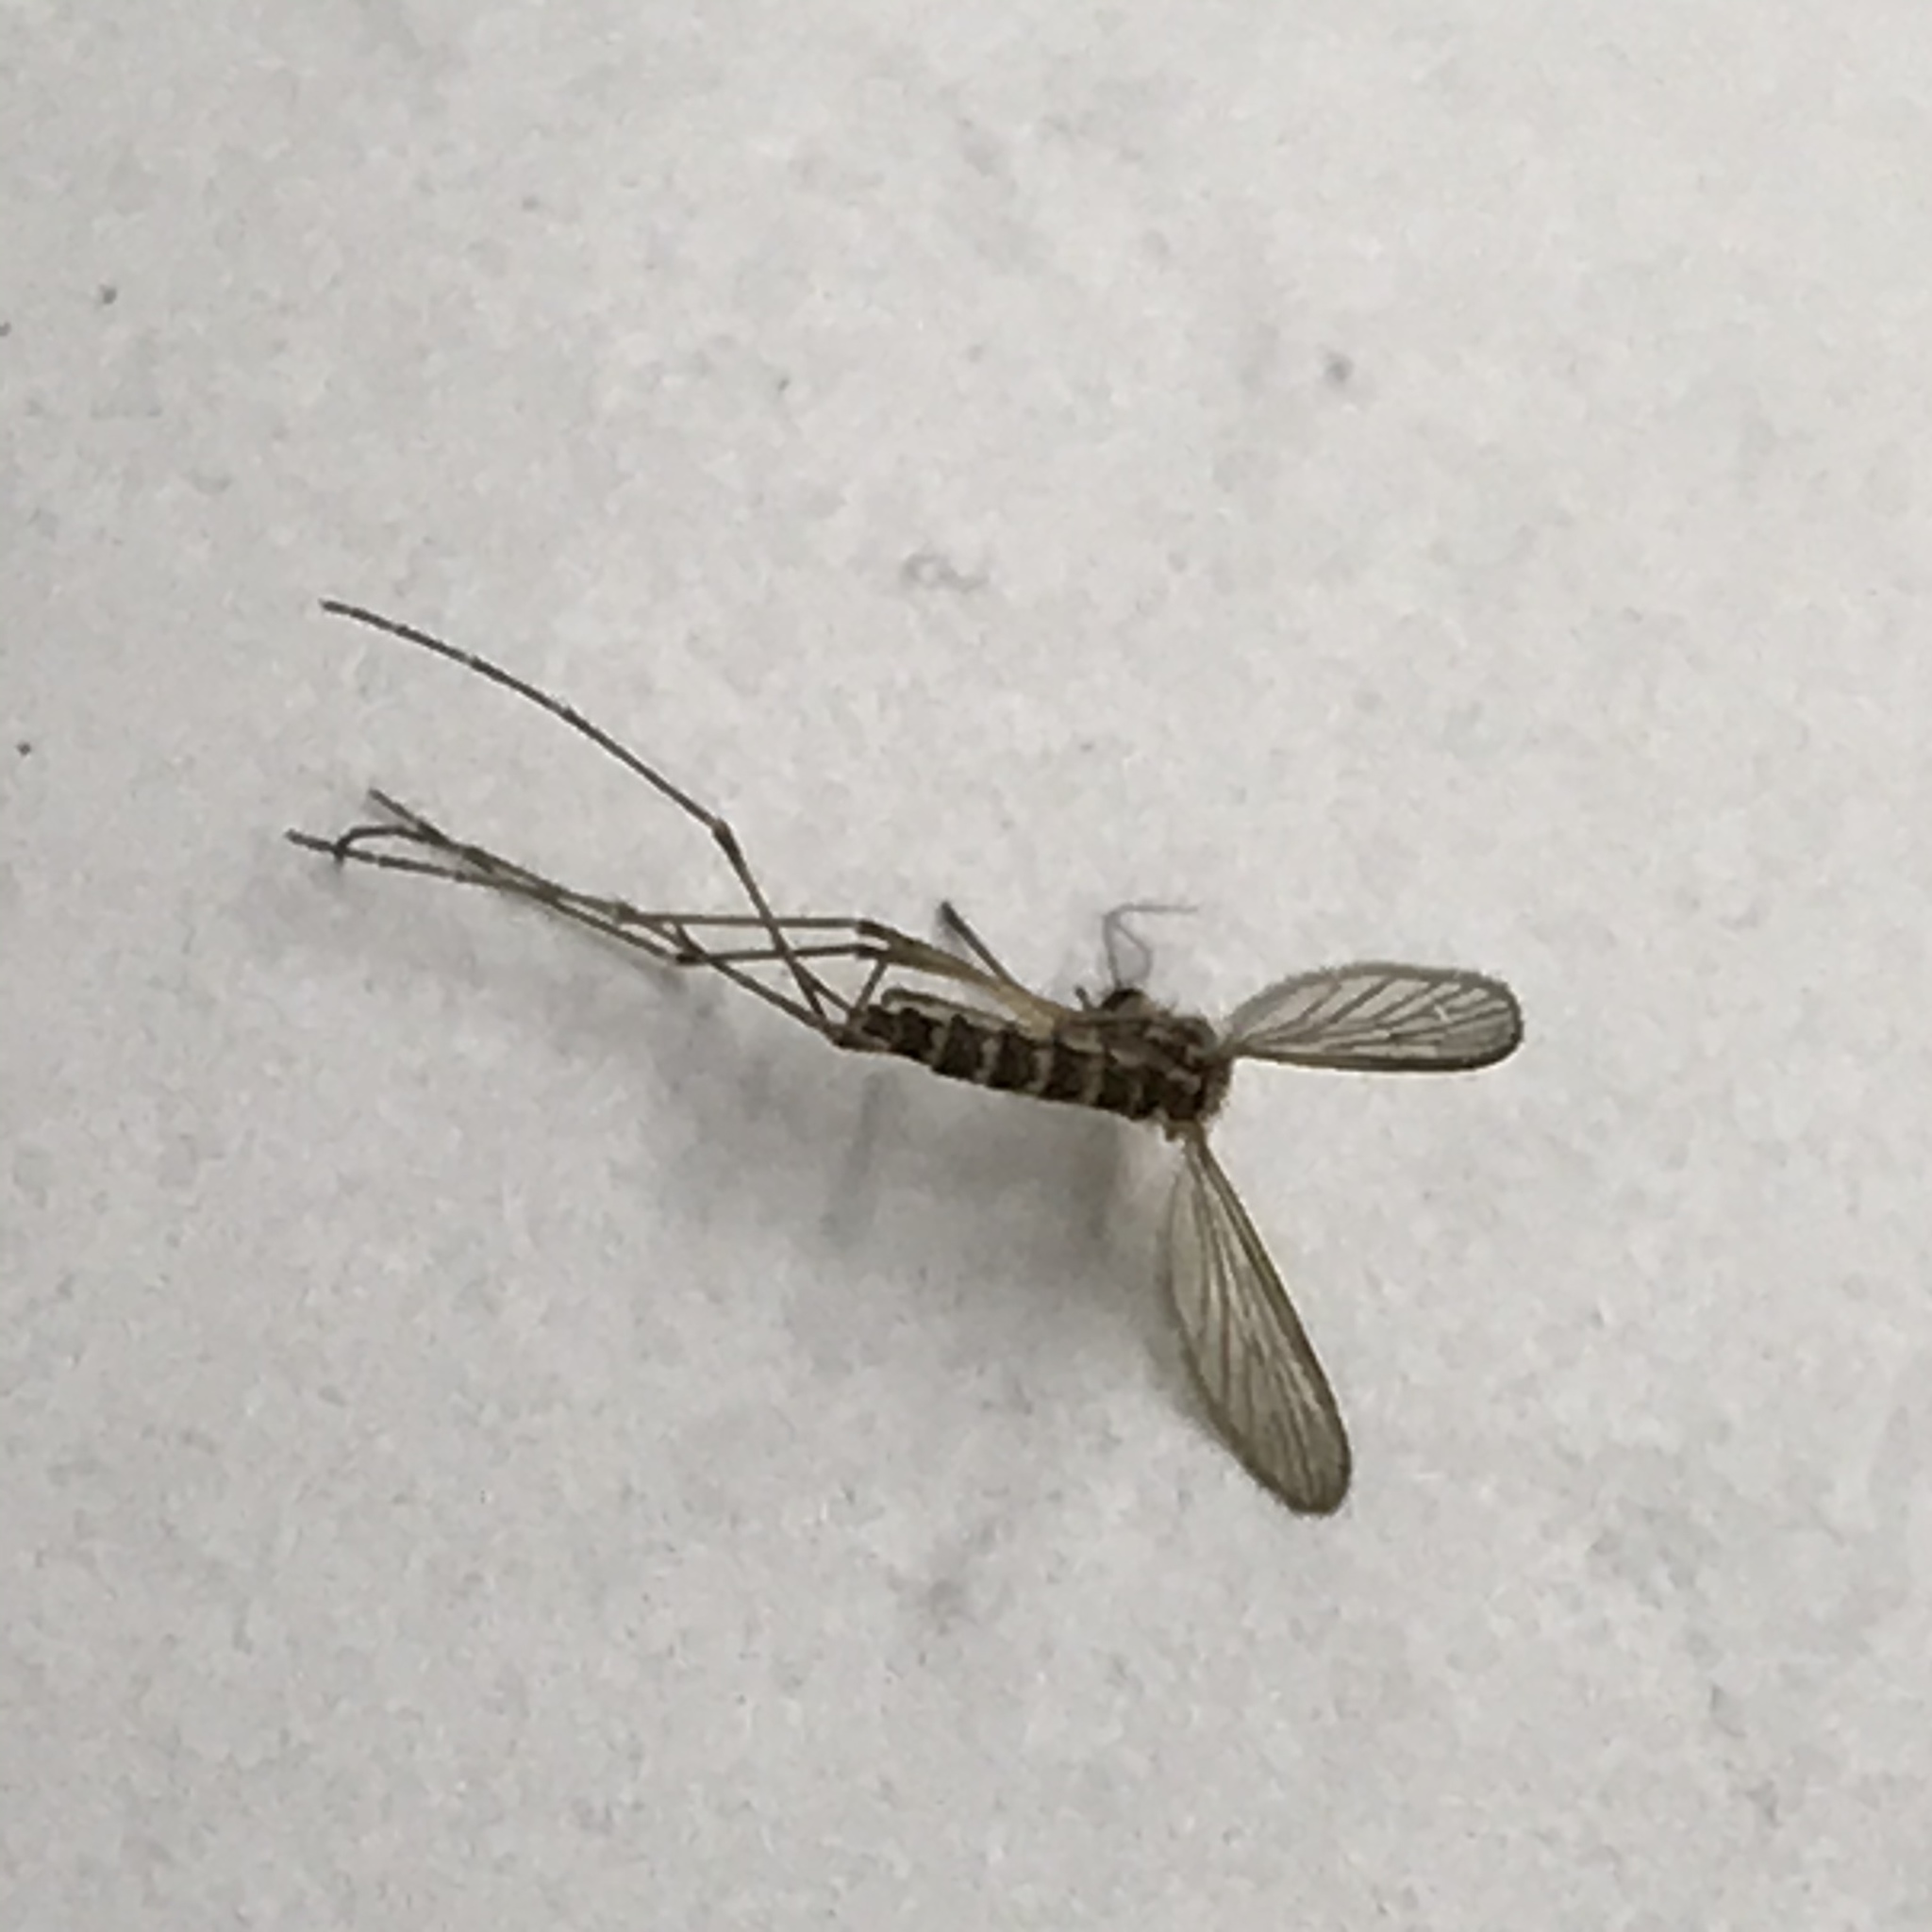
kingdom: Animalia
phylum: Arthropoda
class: Insecta
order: Diptera
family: Culicidae
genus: Aedes
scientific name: Aedes vexans
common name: Inland floodwater mosquito
